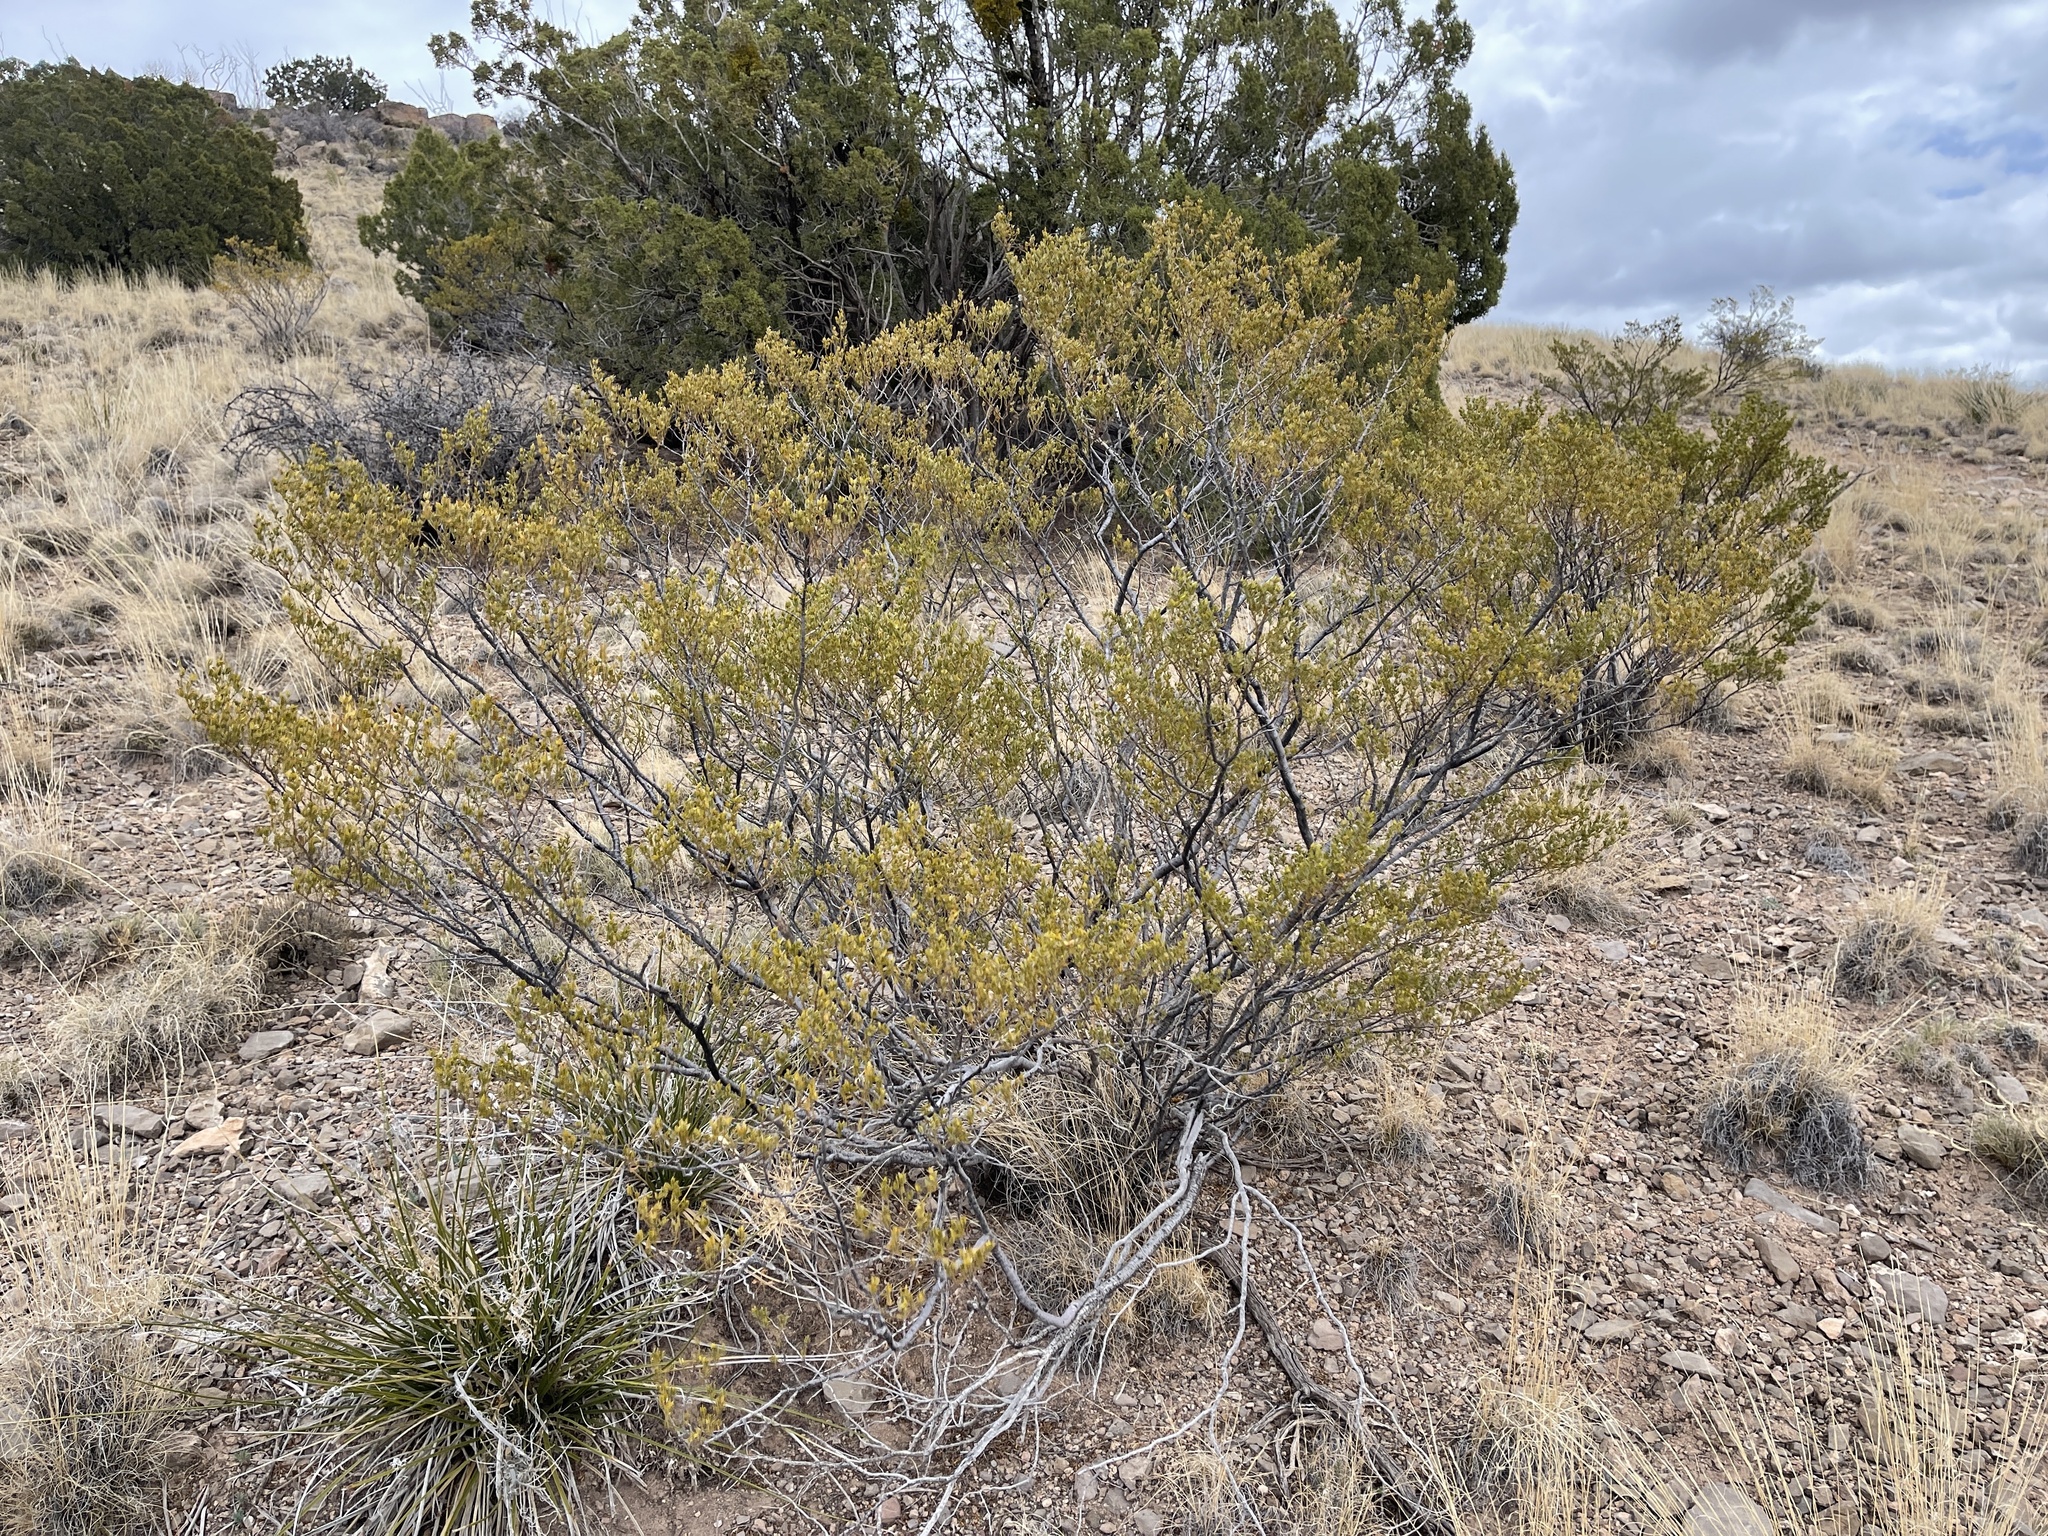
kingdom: Plantae
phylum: Tracheophyta
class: Magnoliopsida
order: Zygophyllales
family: Zygophyllaceae
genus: Larrea
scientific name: Larrea tridentata
